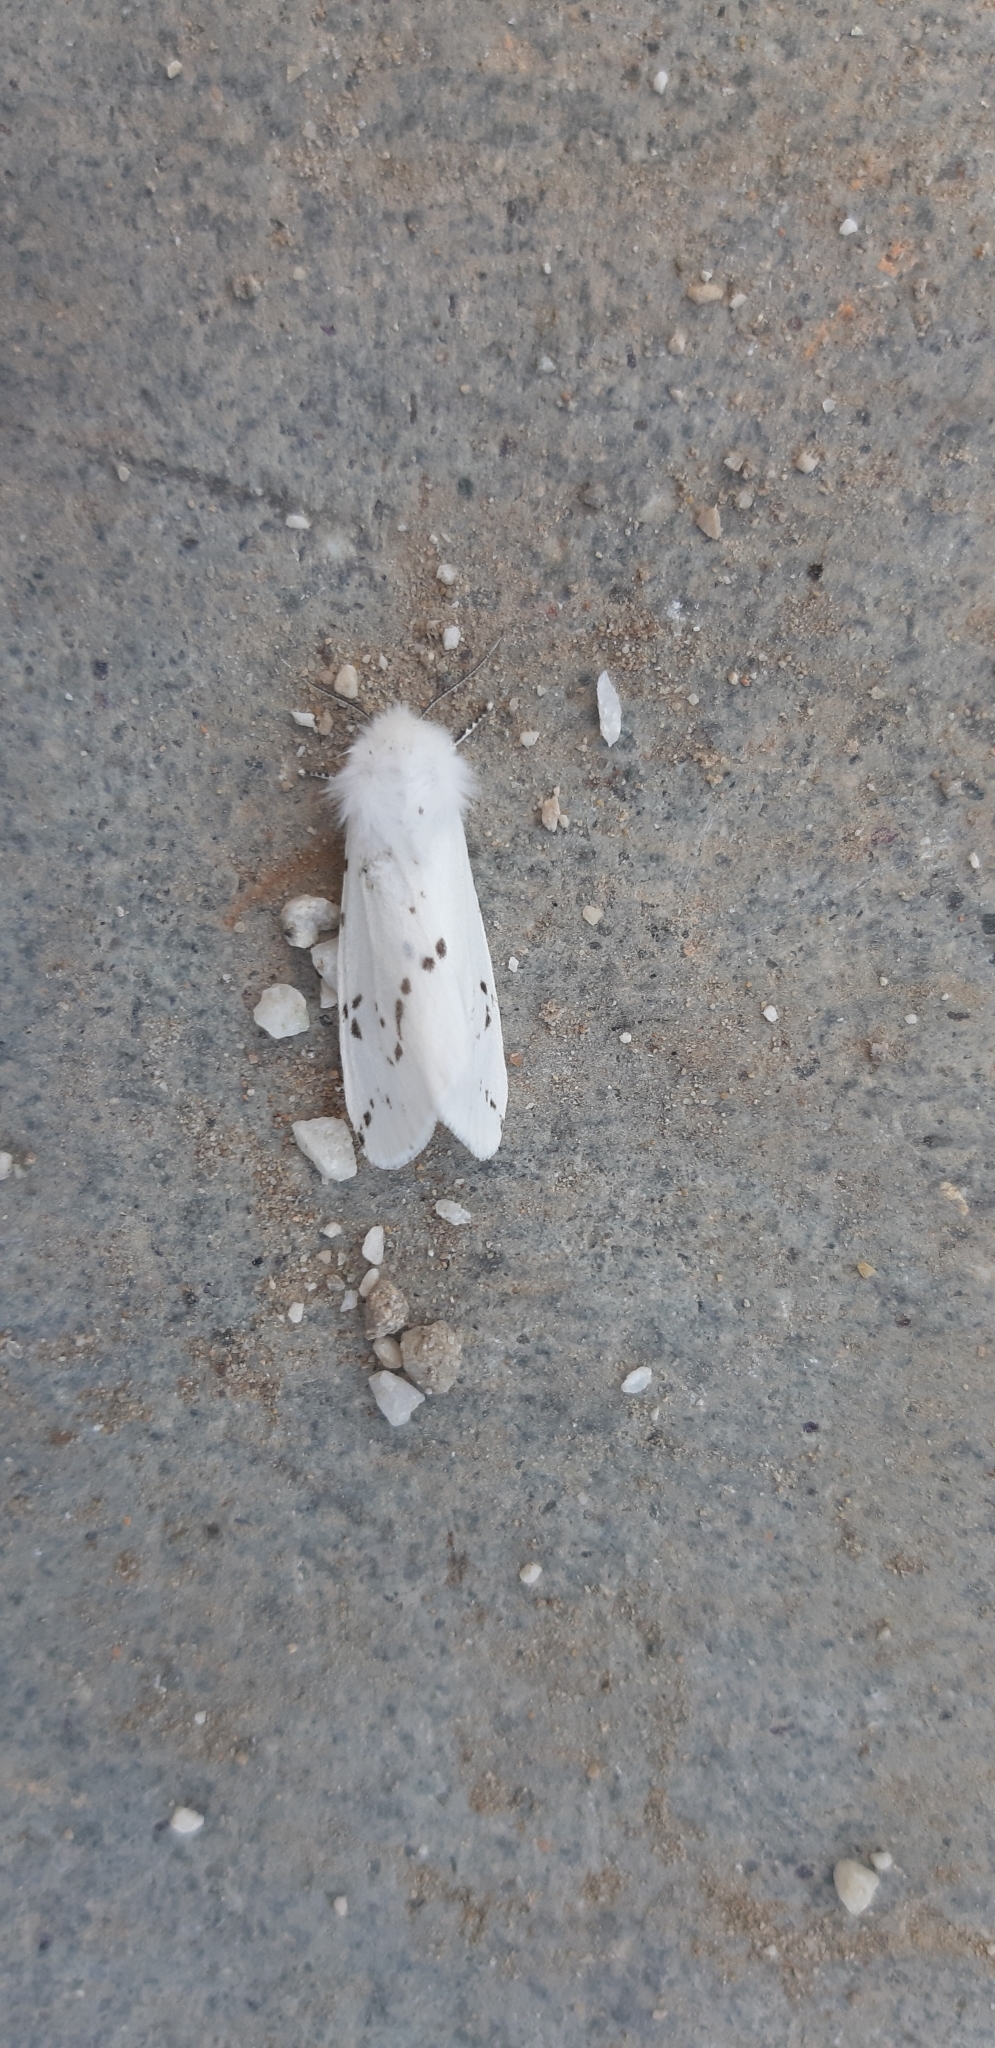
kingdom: Animalia
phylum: Arthropoda
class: Insecta
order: Lepidoptera
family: Erebidae
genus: Spilosoma
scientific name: Spilosoma lubricipeda
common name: White ermine
